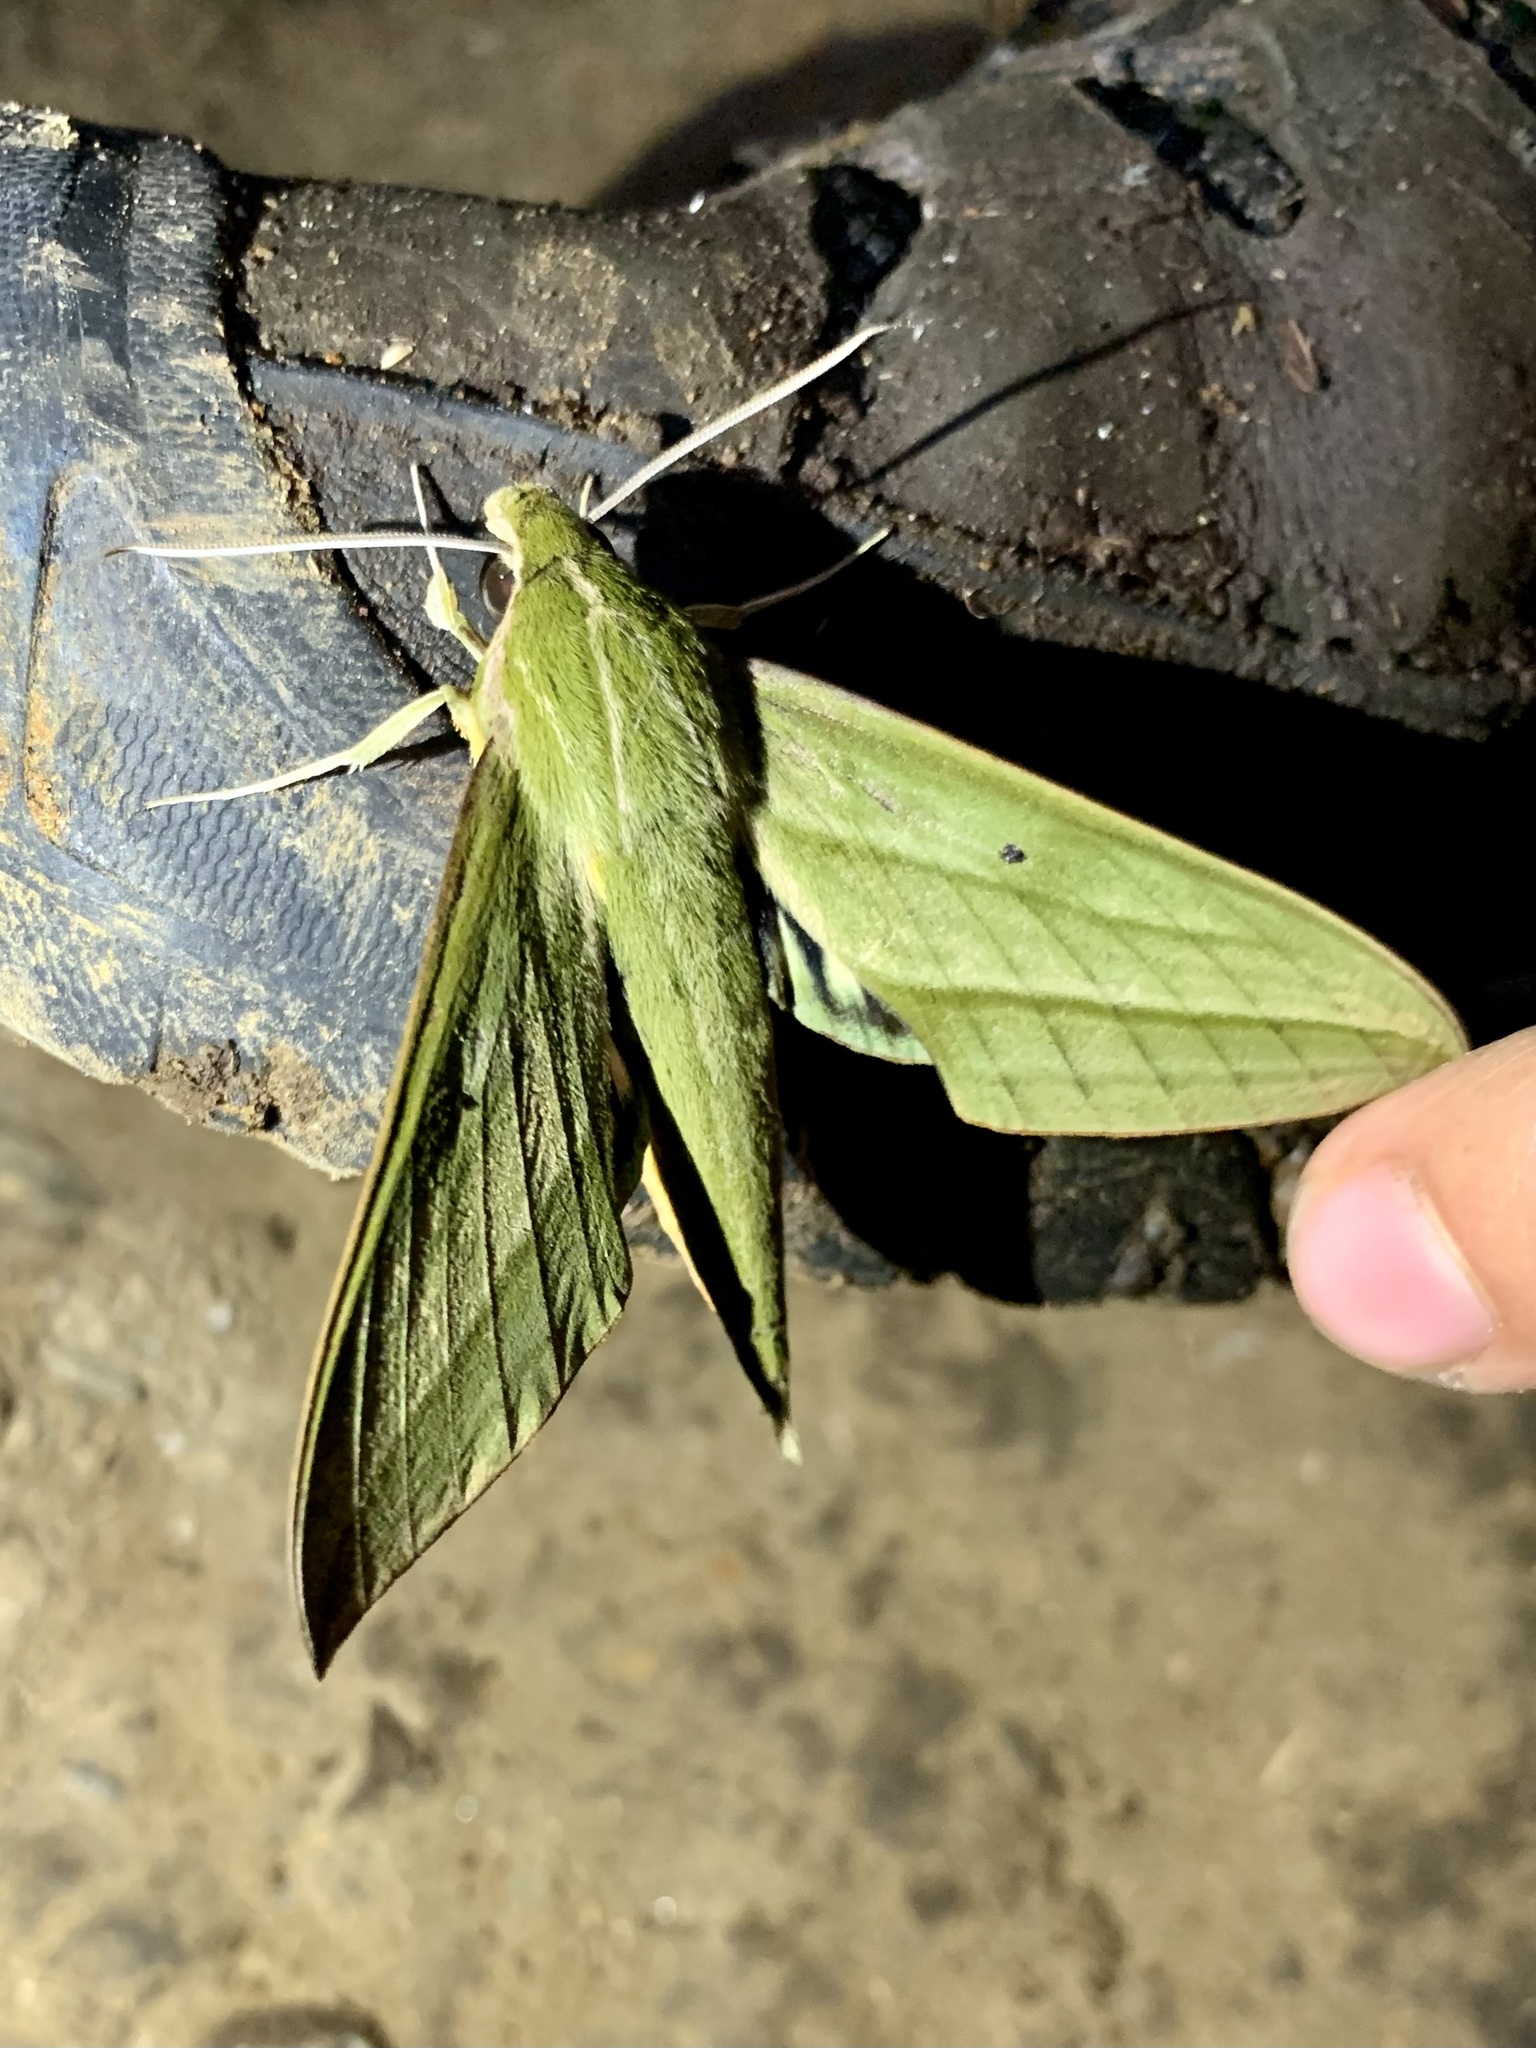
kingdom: Animalia
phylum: Arthropoda
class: Insecta
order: Lepidoptera
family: Sphingidae
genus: Xylophanes
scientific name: Xylophanes aristor
